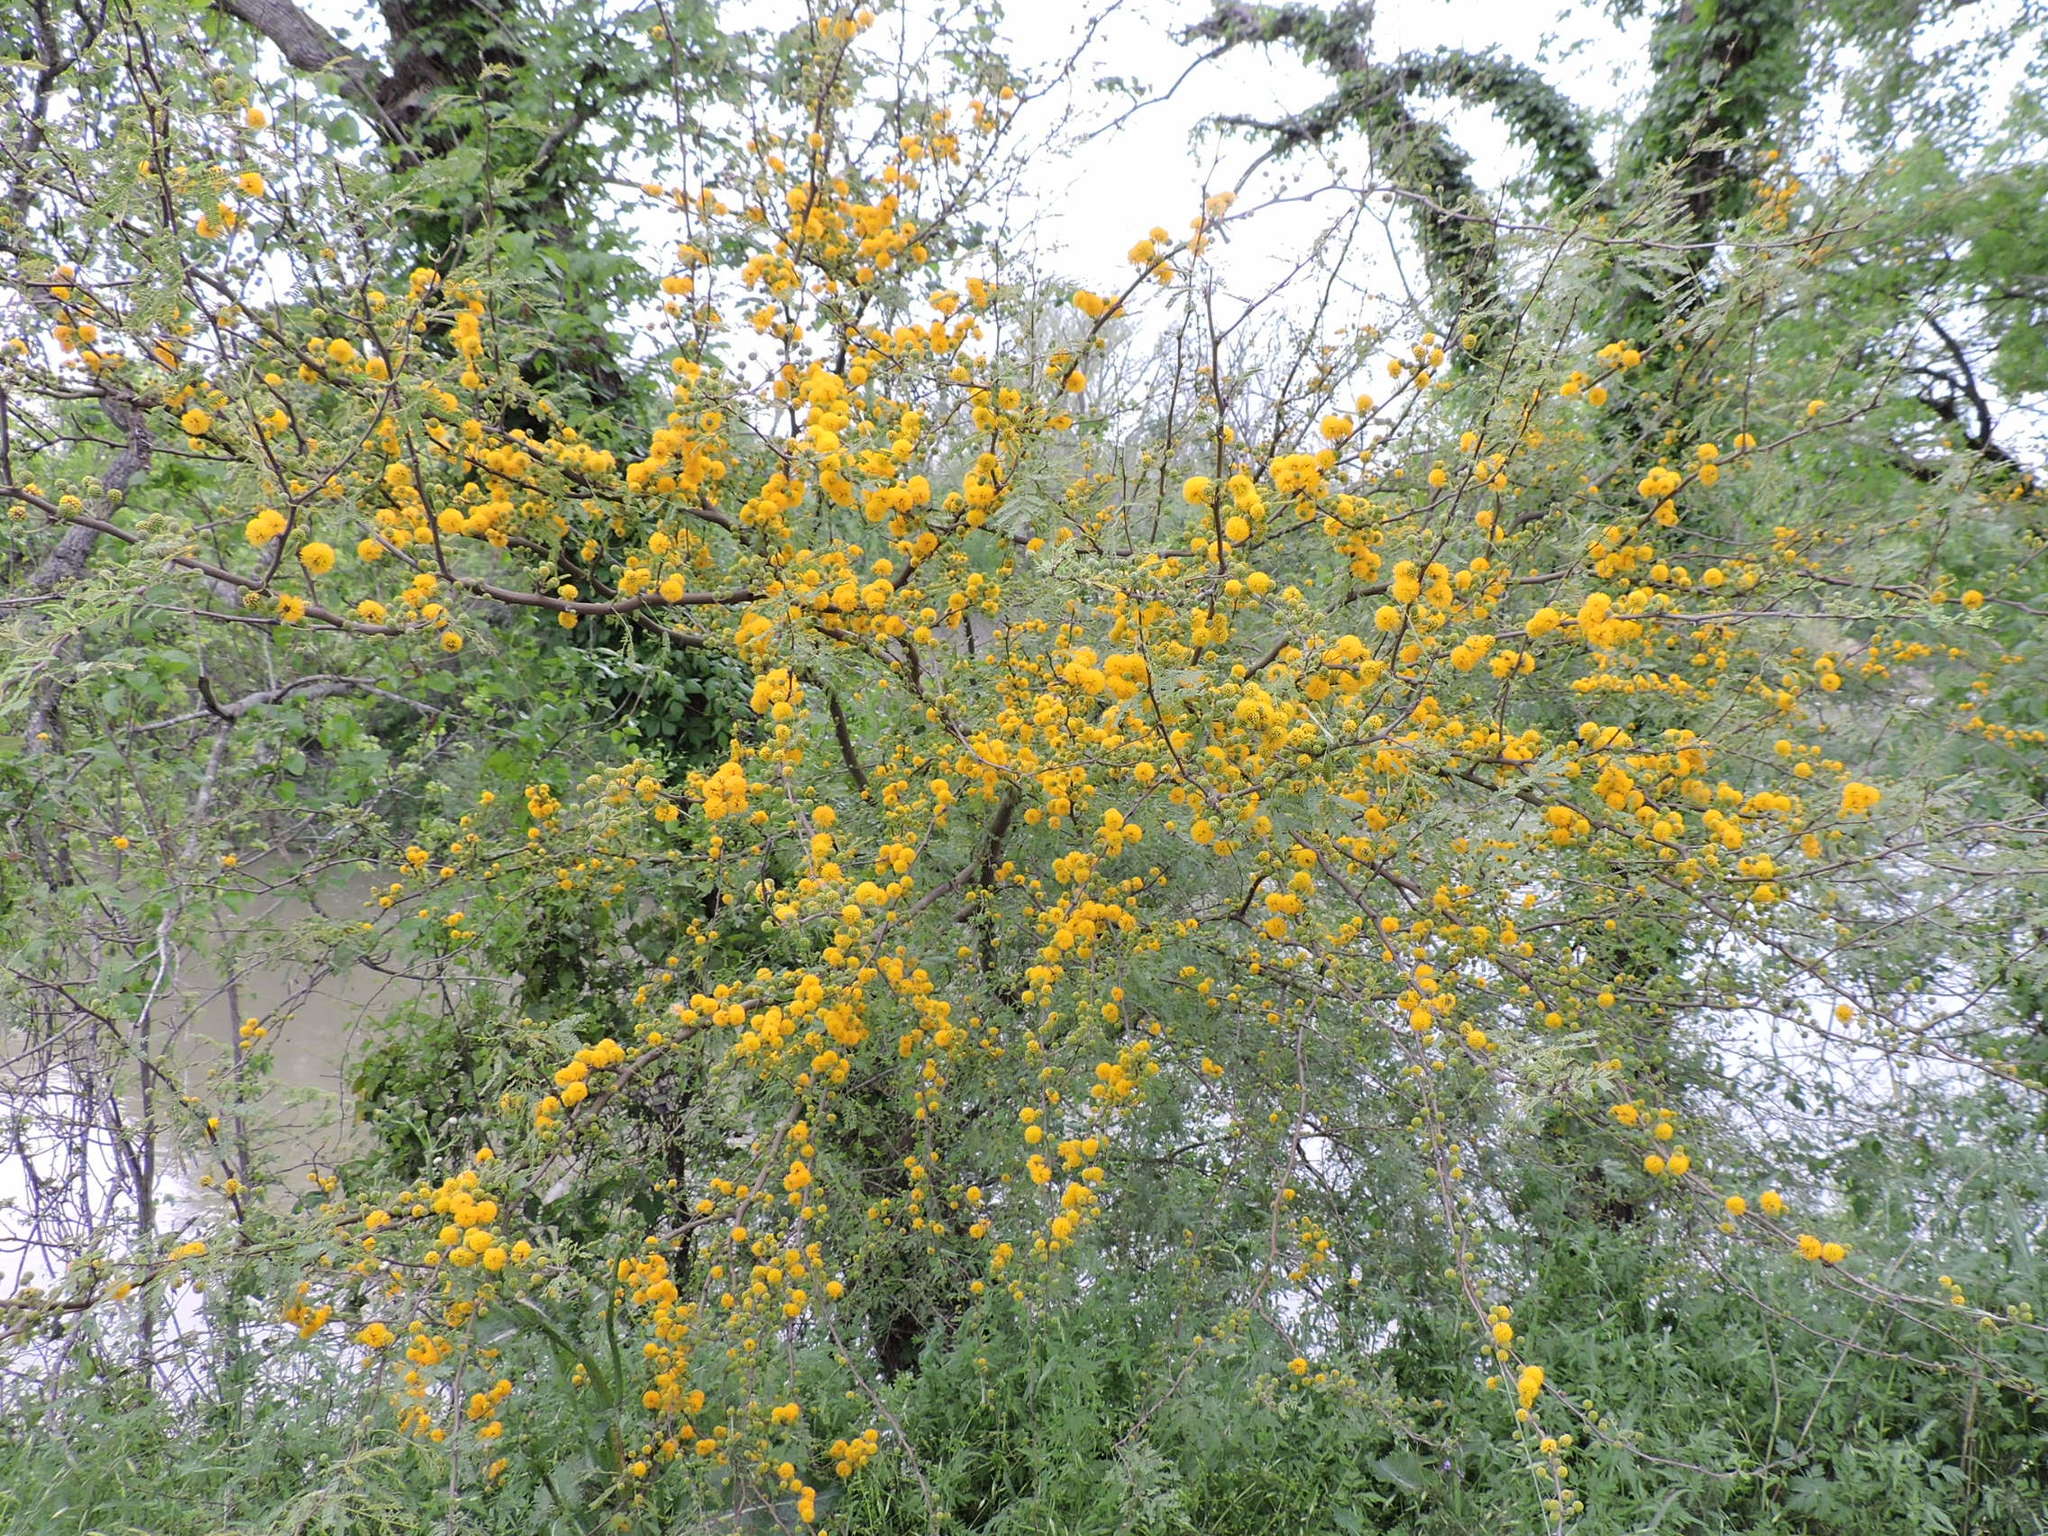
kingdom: Plantae
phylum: Tracheophyta
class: Magnoliopsida
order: Fabales
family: Fabaceae
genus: Vachellia
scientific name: Vachellia farnesiana
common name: Sweet acacia
